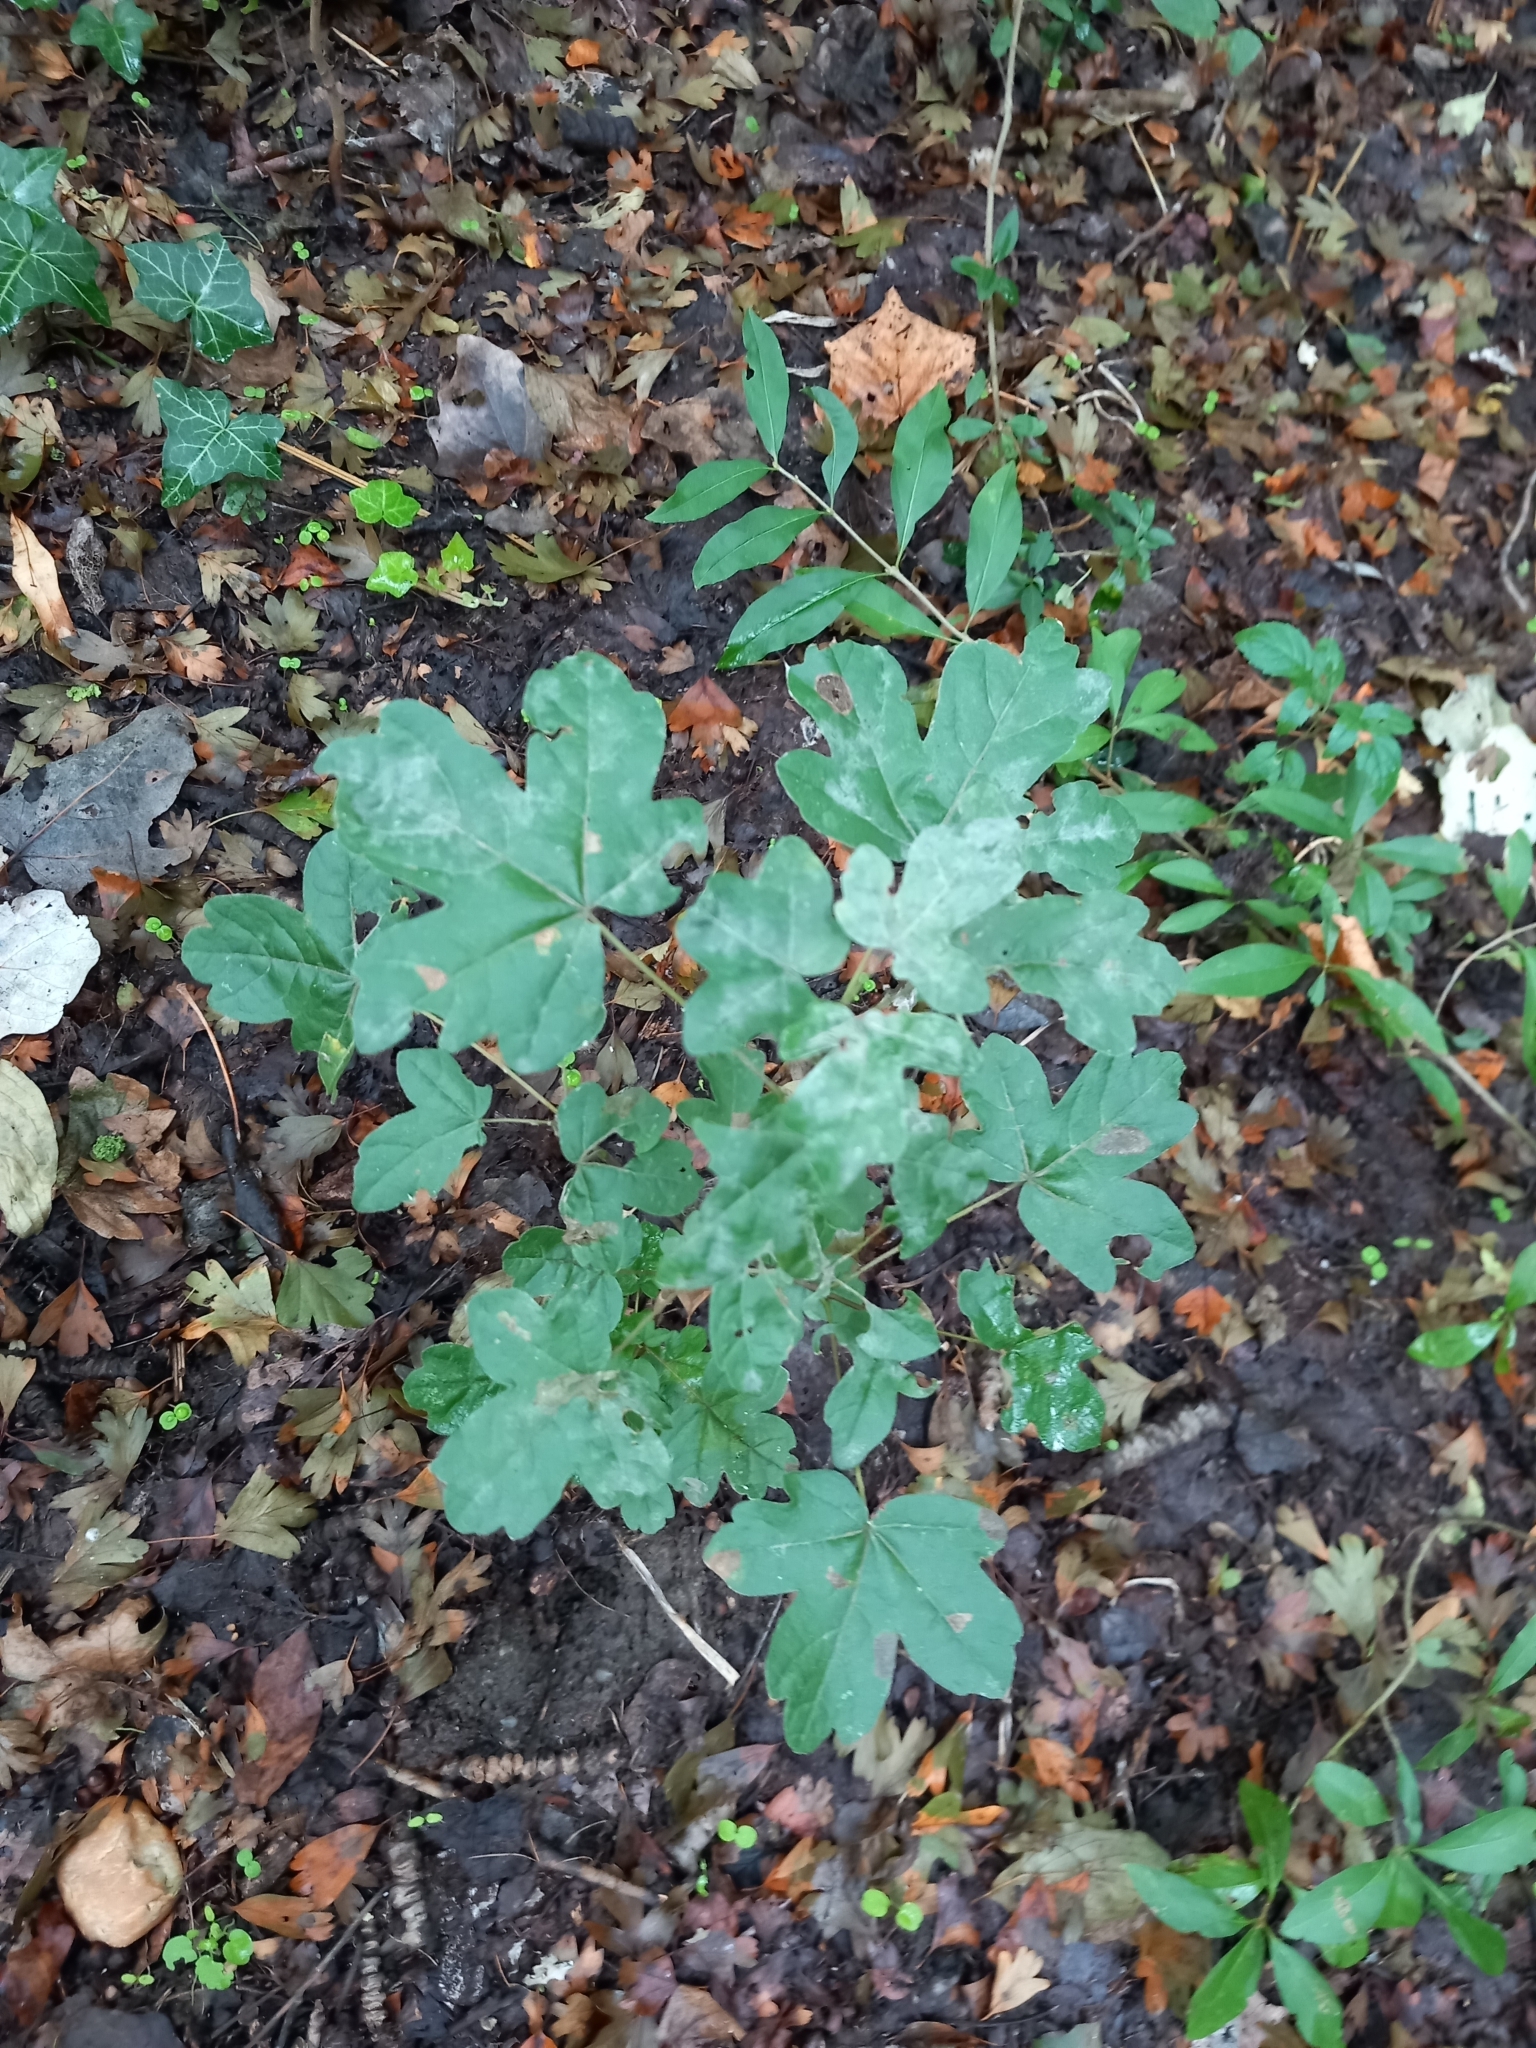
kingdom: Plantae
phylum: Tracheophyta
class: Magnoliopsida
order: Sapindales
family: Sapindaceae
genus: Acer
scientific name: Acer campestre
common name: Field maple
